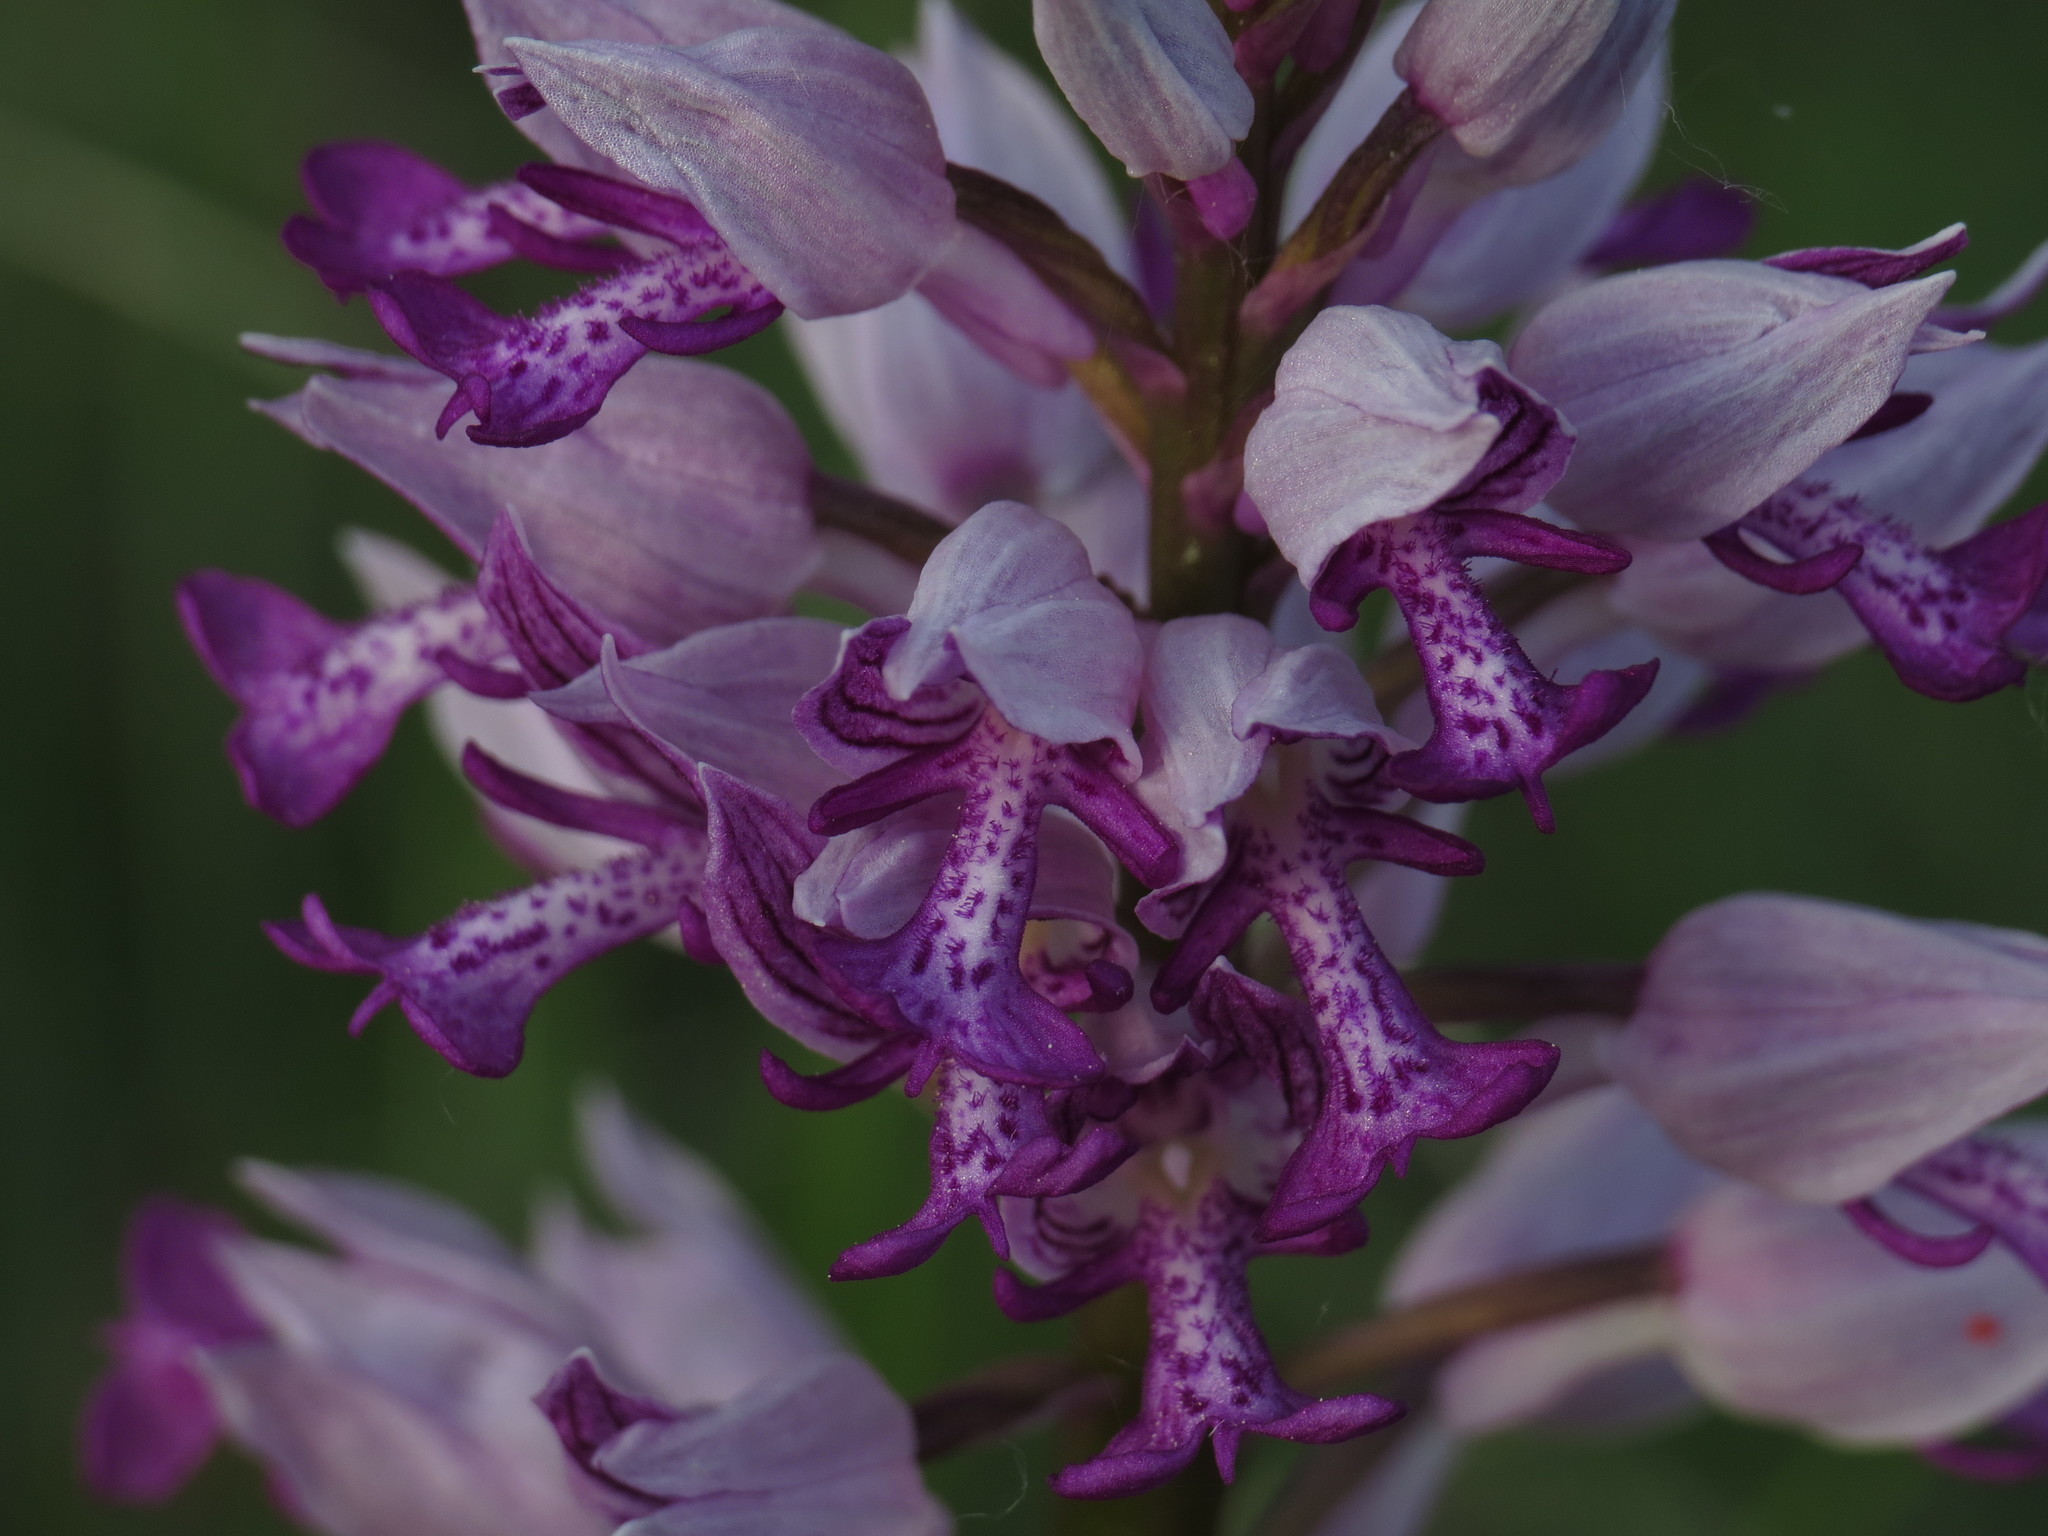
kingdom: Plantae
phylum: Tracheophyta
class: Liliopsida
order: Asparagales
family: Orchidaceae
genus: Orchis
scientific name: Orchis militaris
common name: Military orchid
